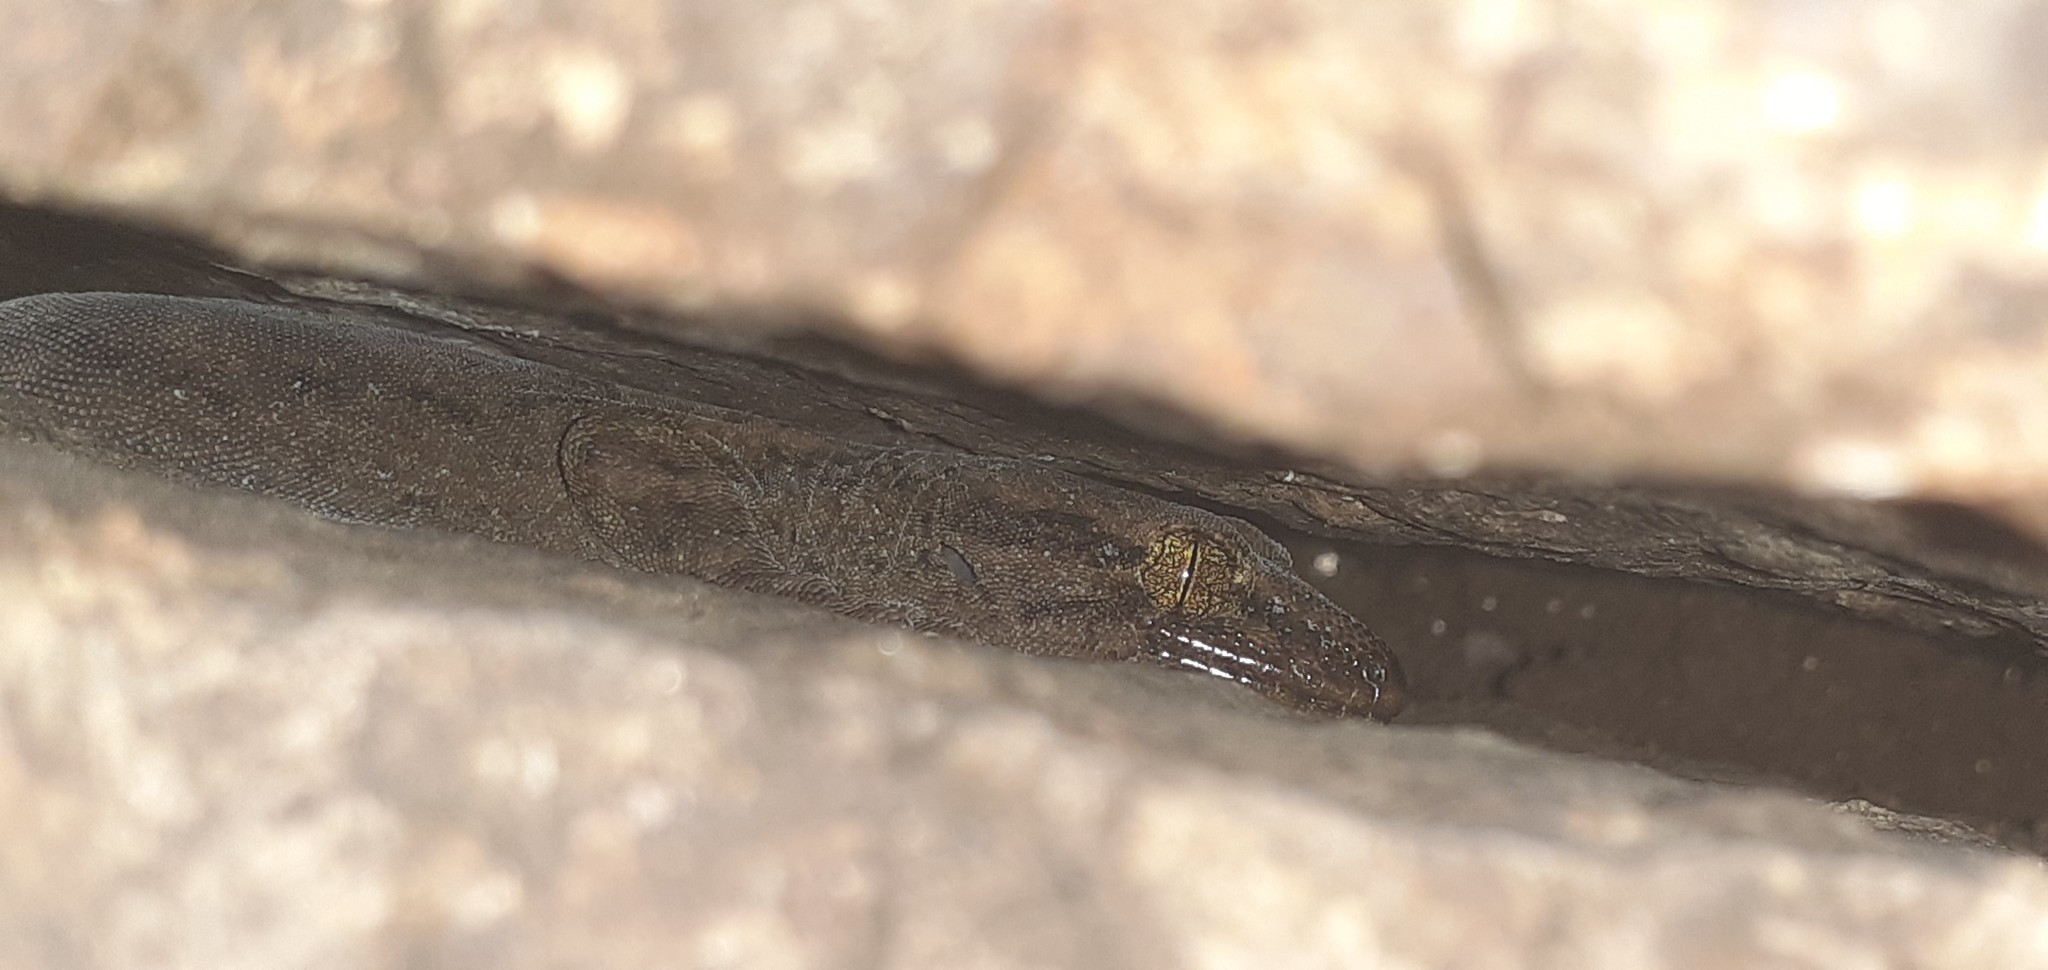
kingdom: Animalia
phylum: Chordata
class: Squamata
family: Diplodactylidae
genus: Woodworthia
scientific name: Woodworthia brunnea
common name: Canterbury gecko
